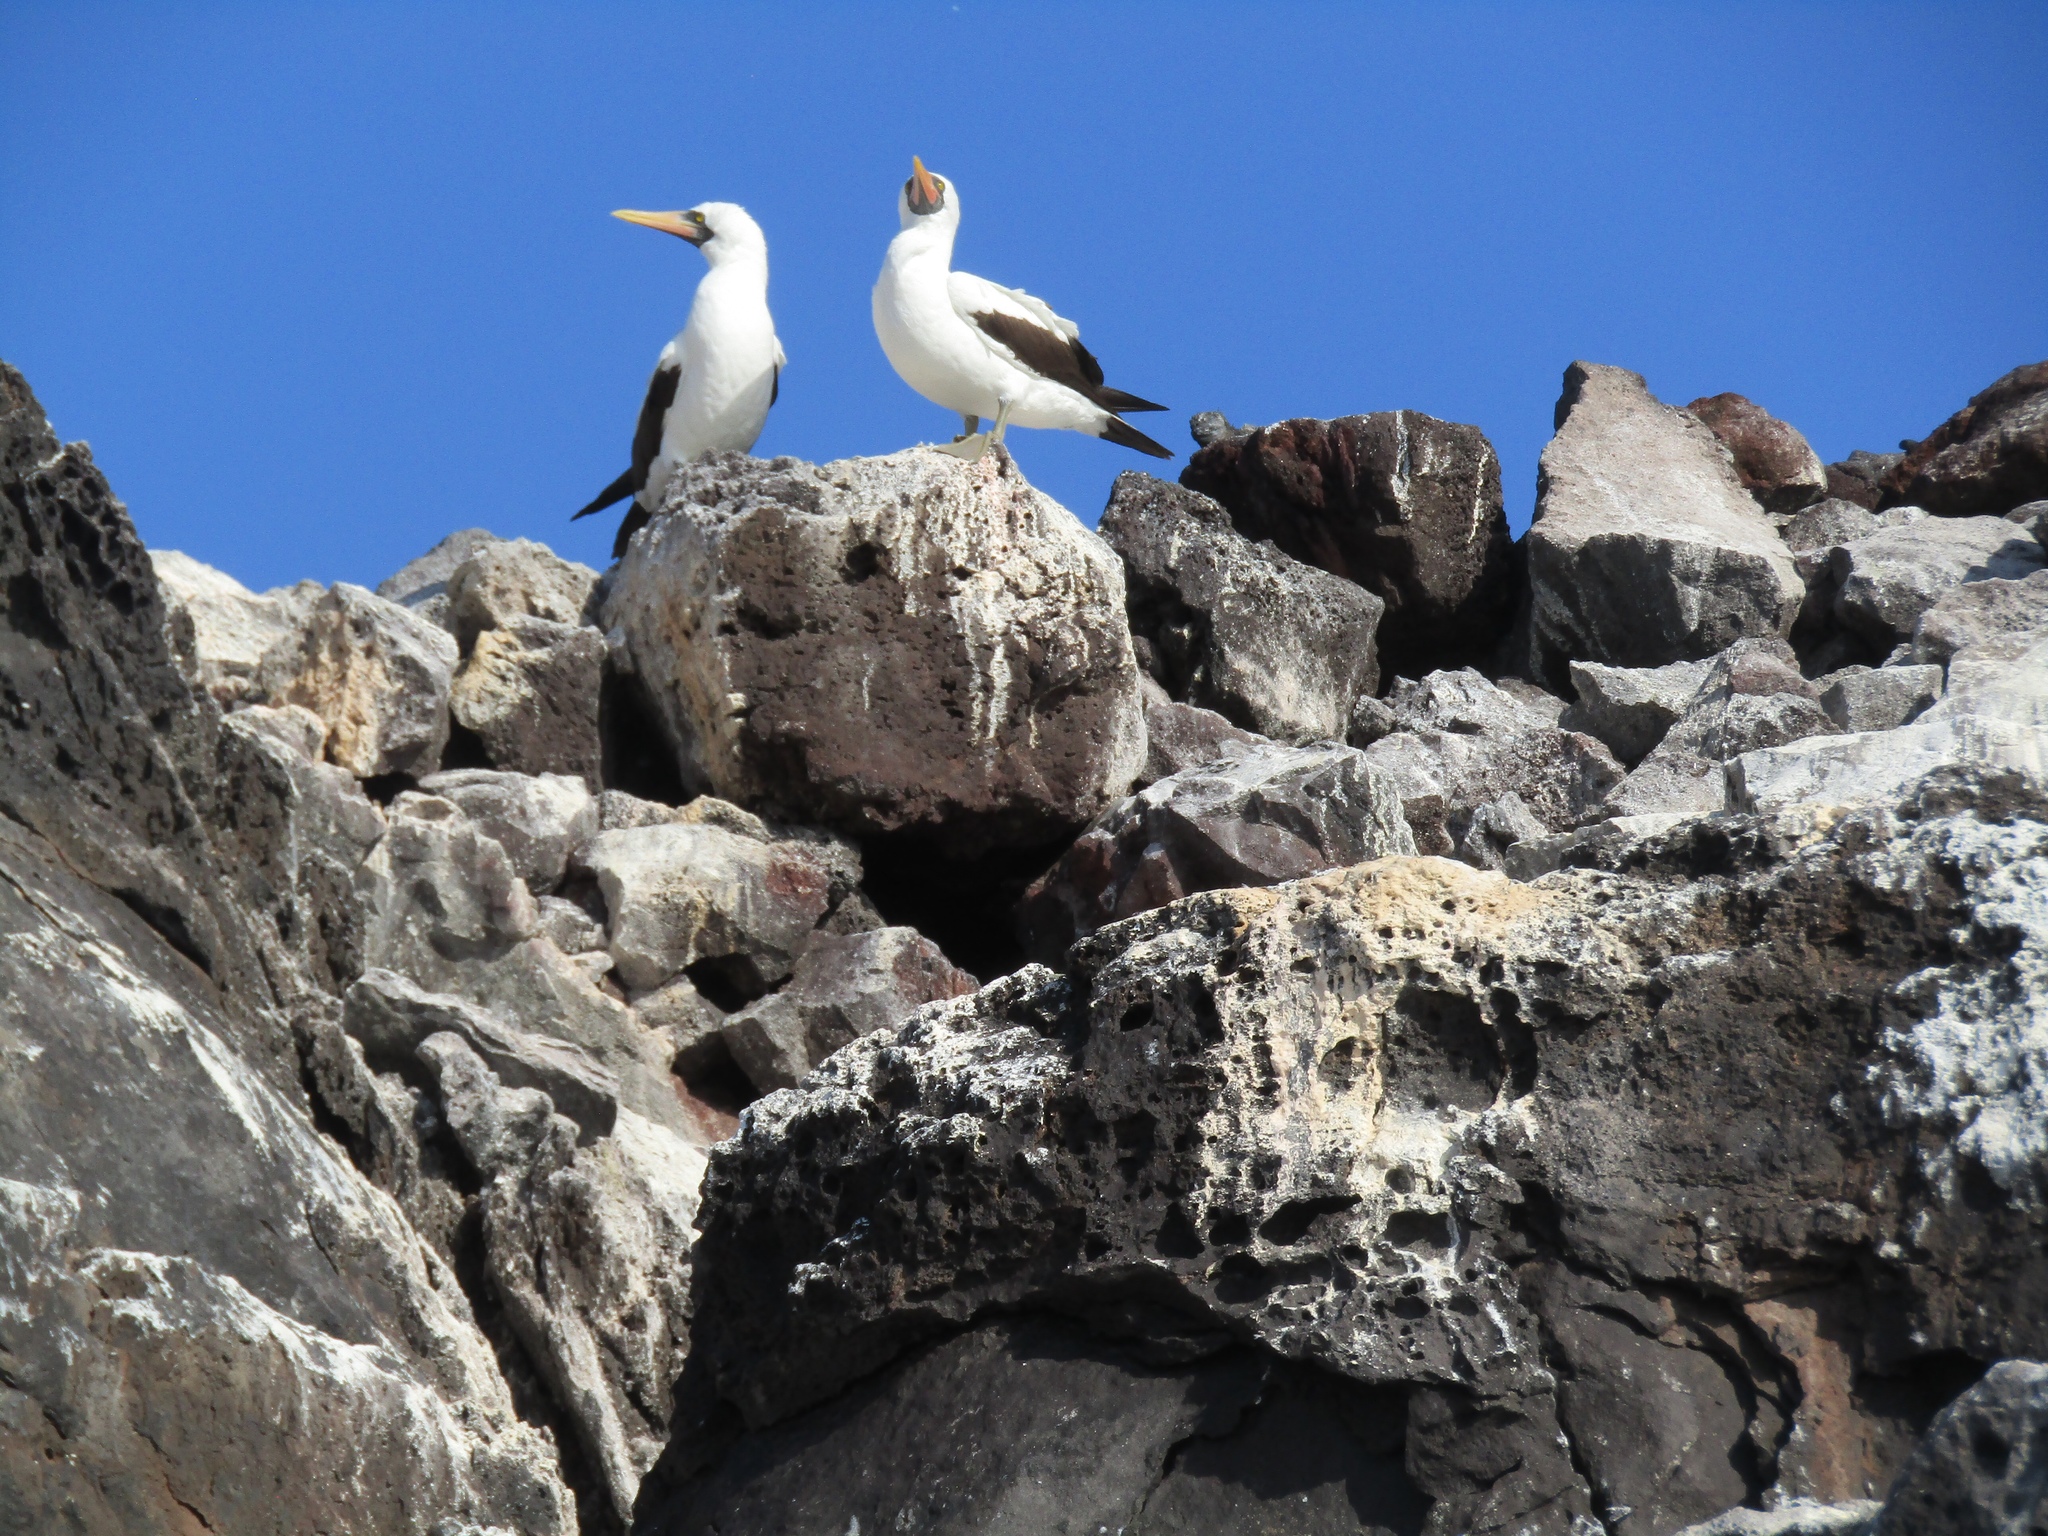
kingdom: Animalia
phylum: Chordata
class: Aves
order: Suliformes
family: Sulidae
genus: Sula
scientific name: Sula granti
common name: Nazca booby
